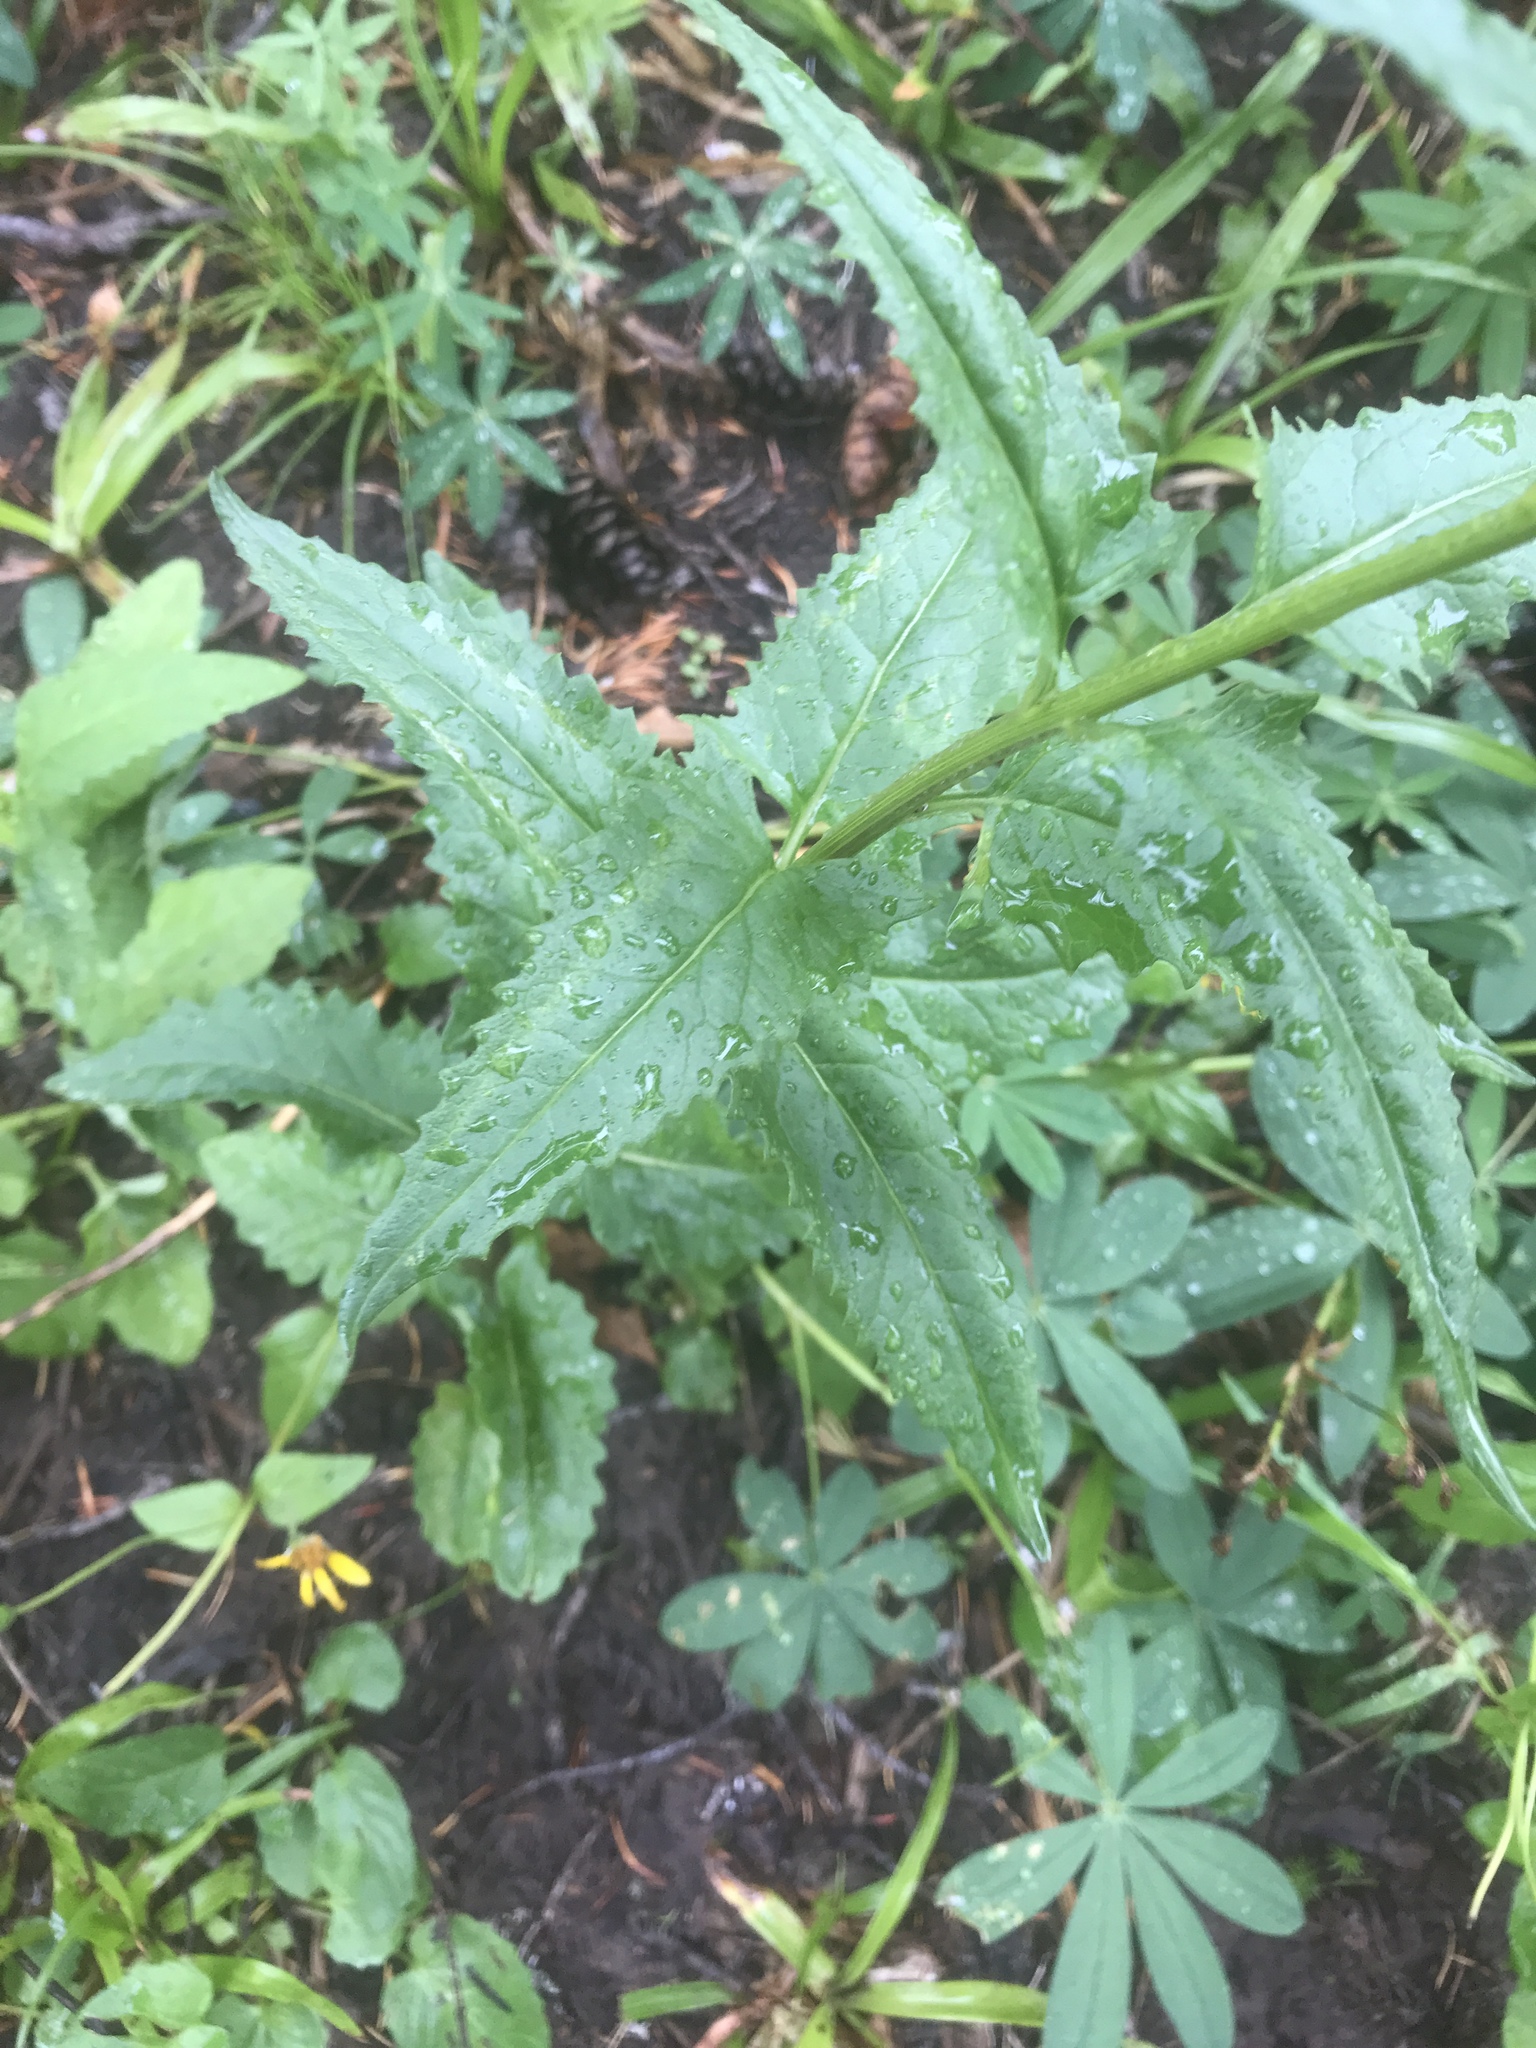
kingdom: Plantae
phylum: Tracheophyta
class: Magnoliopsida
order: Asterales
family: Asteraceae
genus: Senecio
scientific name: Senecio triangularis
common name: Arrowleaf butterweed
